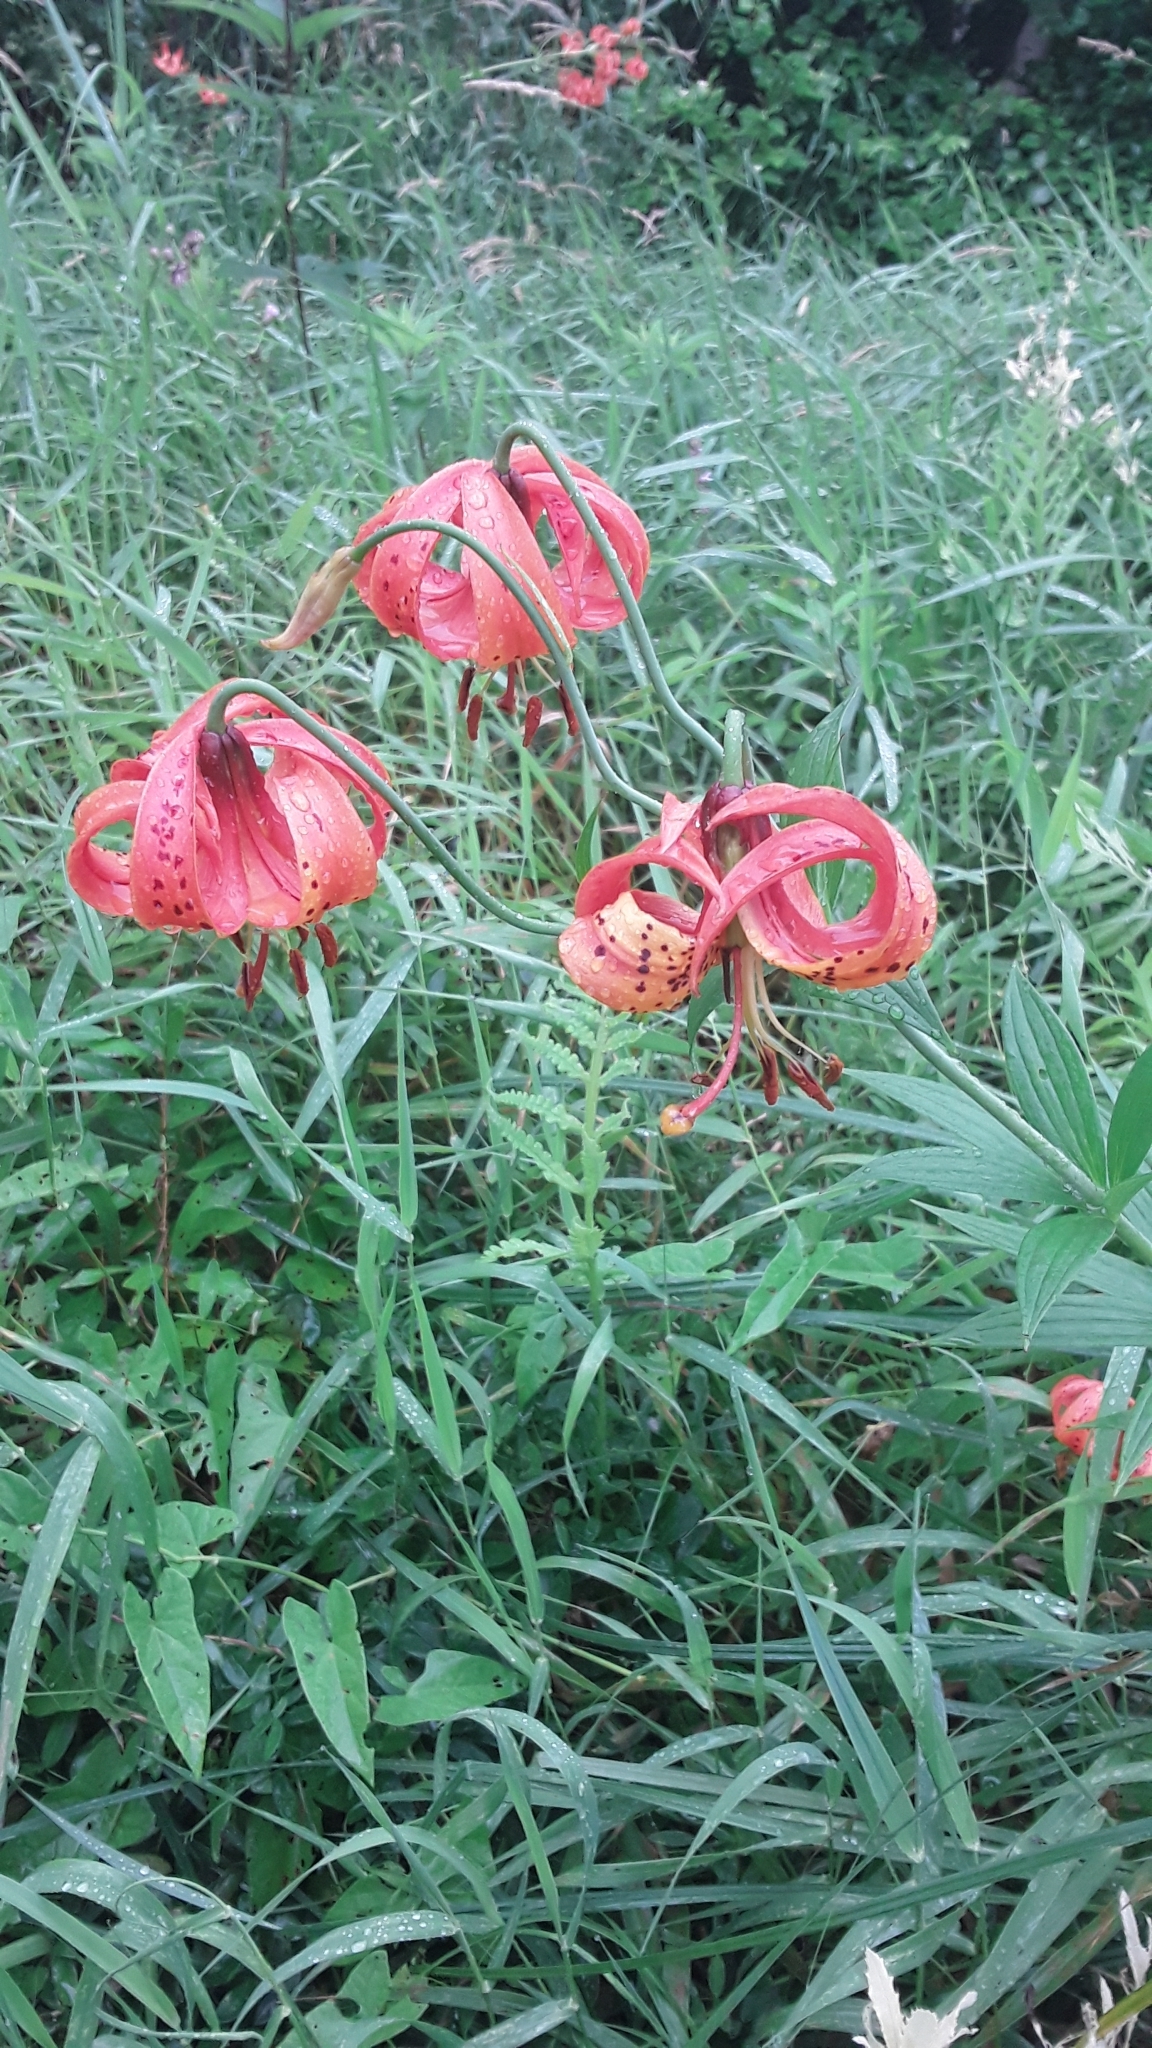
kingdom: Plantae
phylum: Tracheophyta
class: Liliopsida
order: Liliales
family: Liliaceae
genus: Lilium
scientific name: Lilium michiganense
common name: Michigan lily
